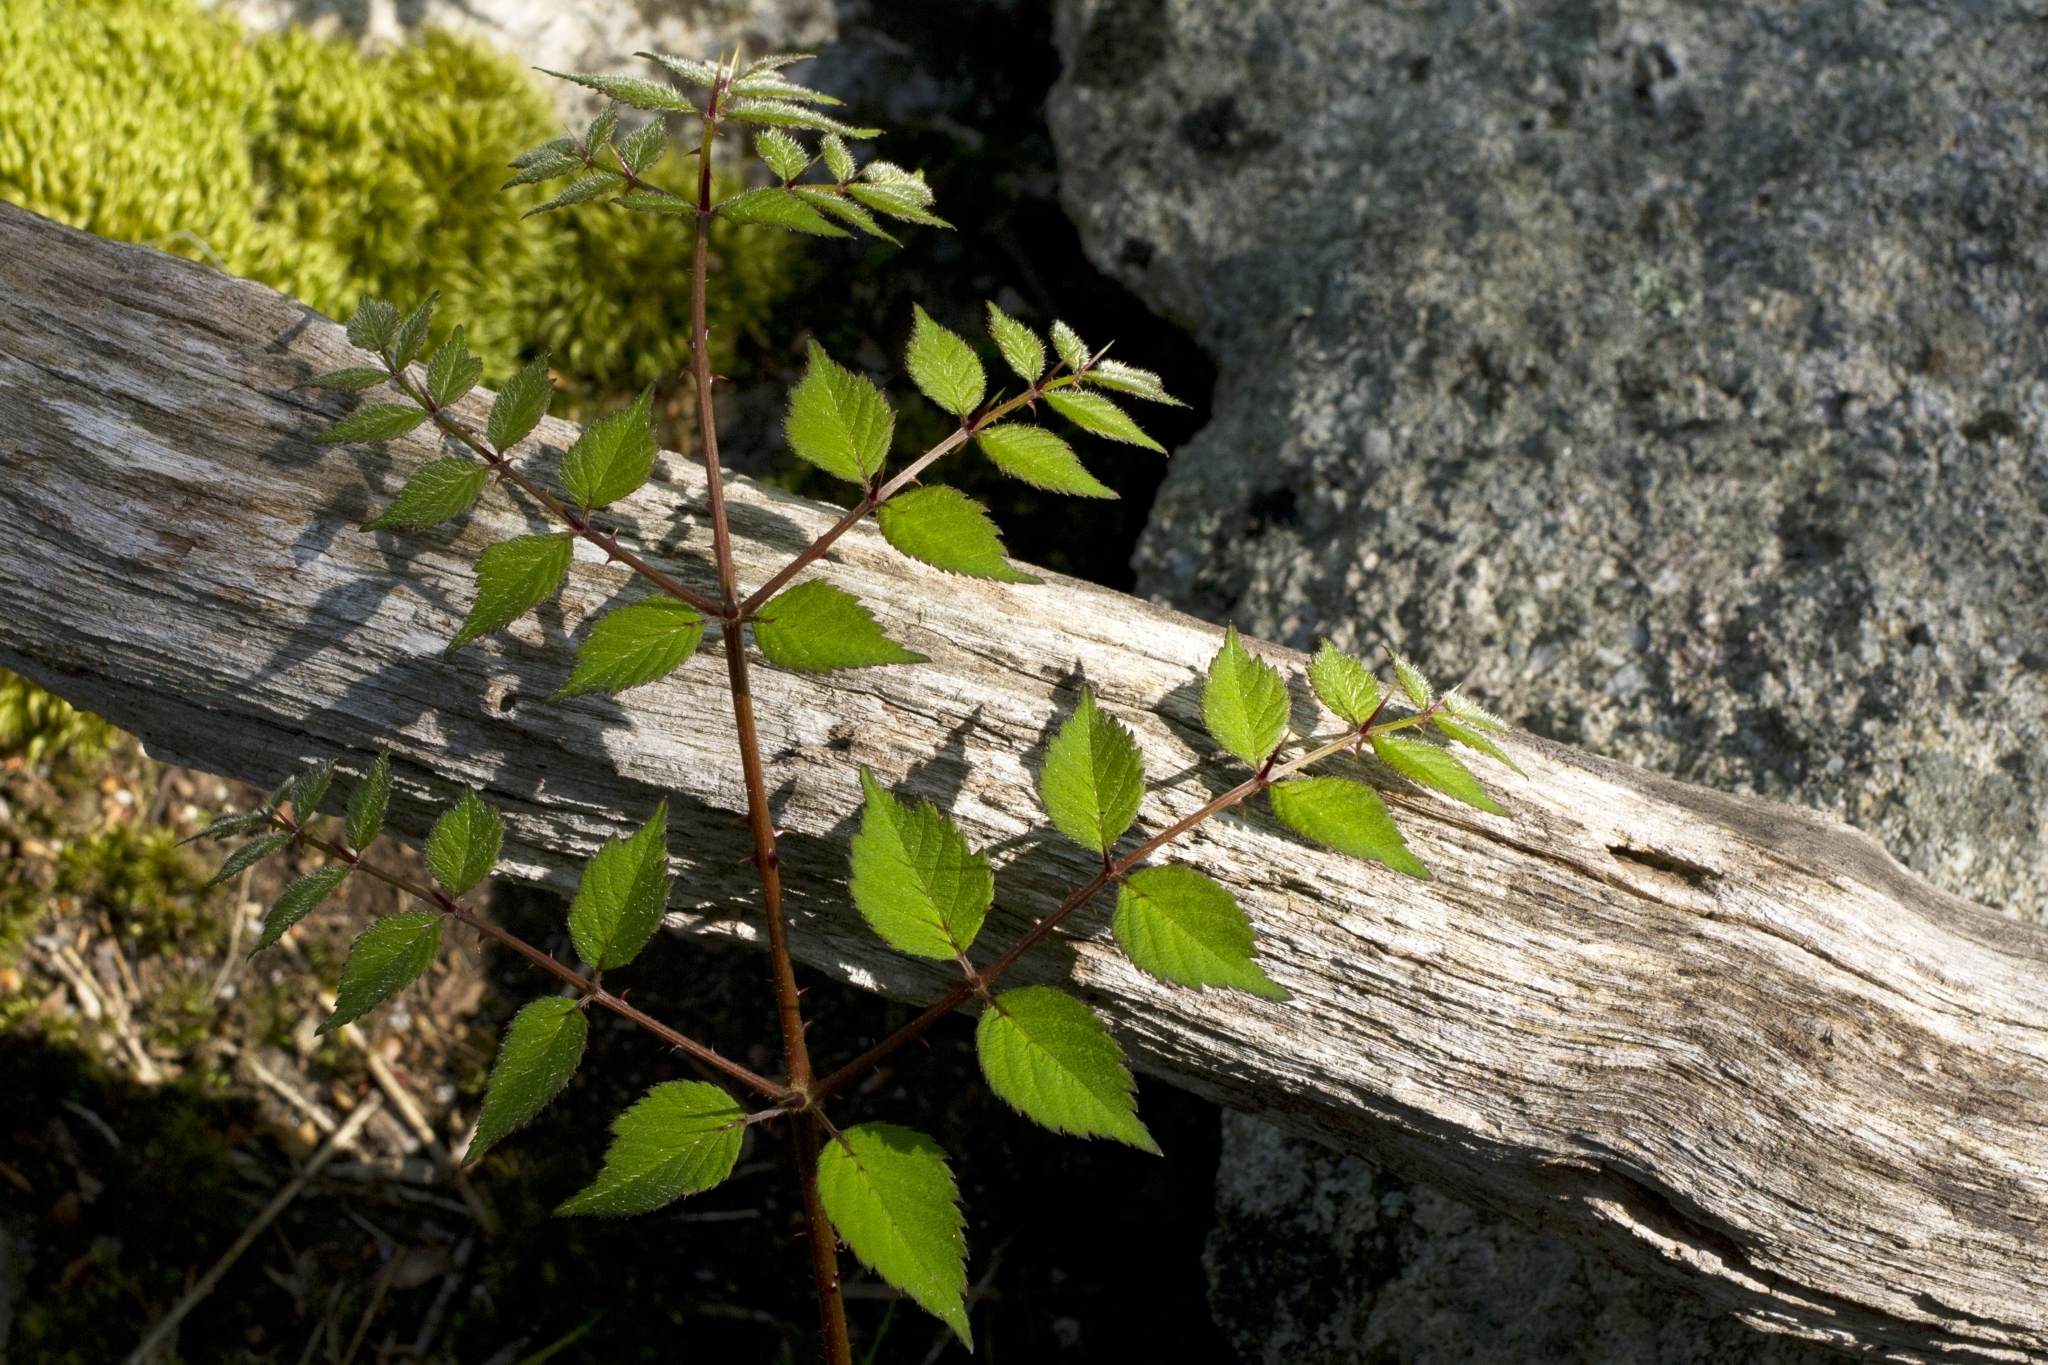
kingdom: Plantae
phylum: Tracheophyta
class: Magnoliopsida
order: Apiales
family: Araliaceae
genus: Aralia
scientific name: Aralia elata
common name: Japanese angelica-tree
